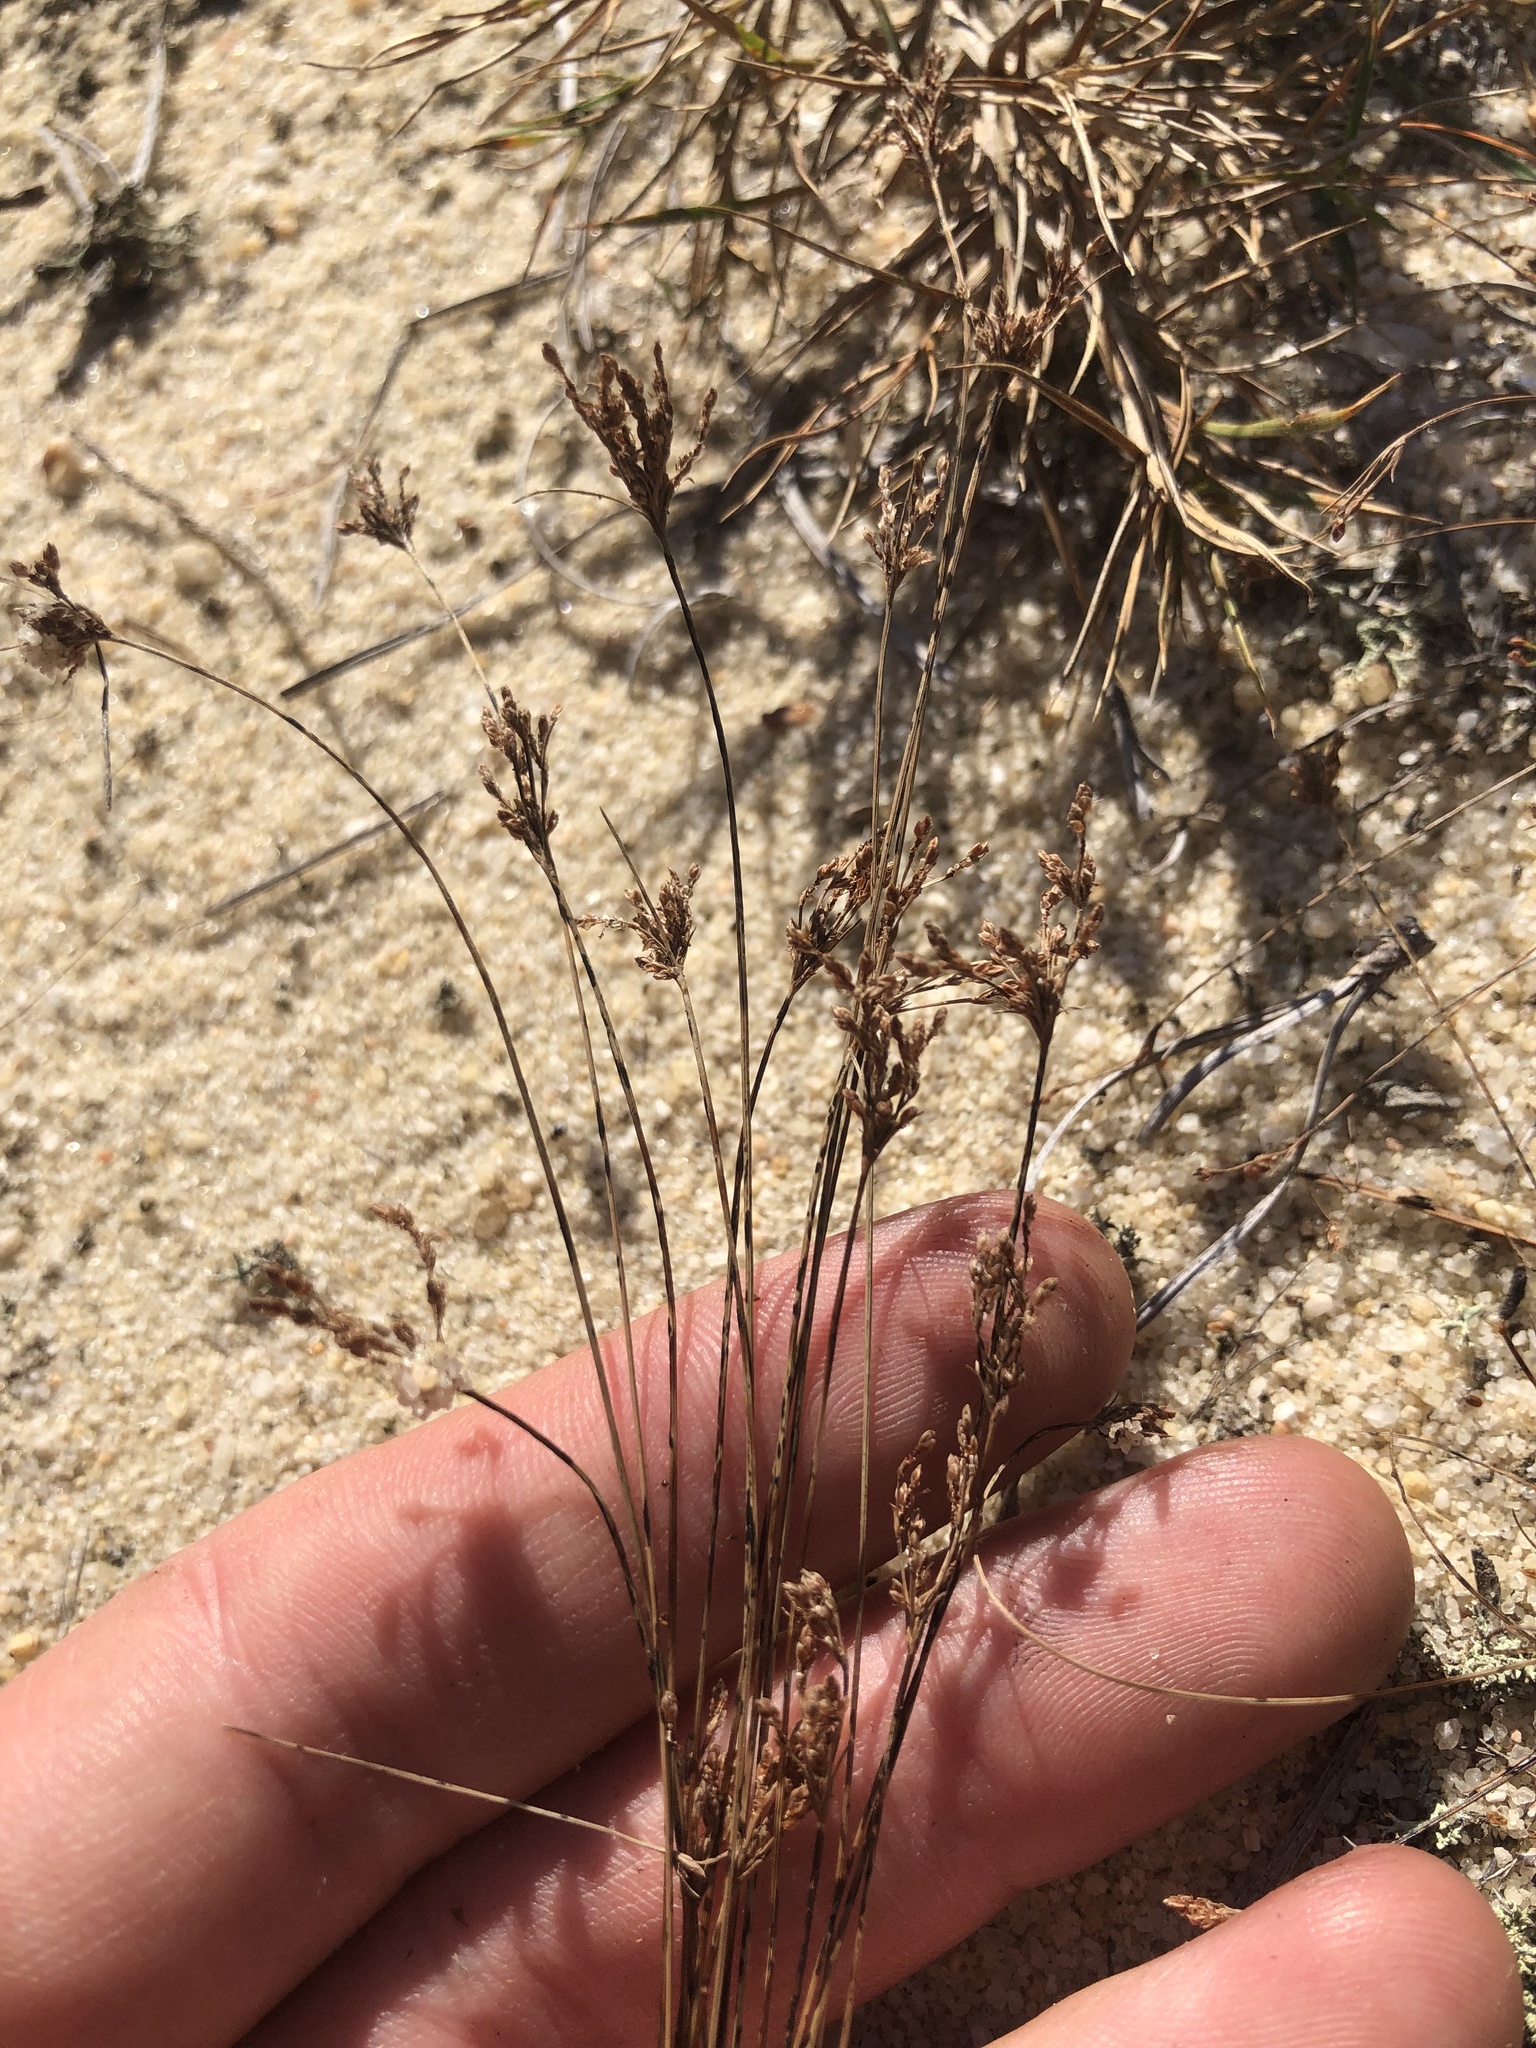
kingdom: Plantae
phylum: Tracheophyta
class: Liliopsida
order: Poales
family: Cyperaceae
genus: Bulbostylis
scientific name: Bulbostylis ciliatifolia
